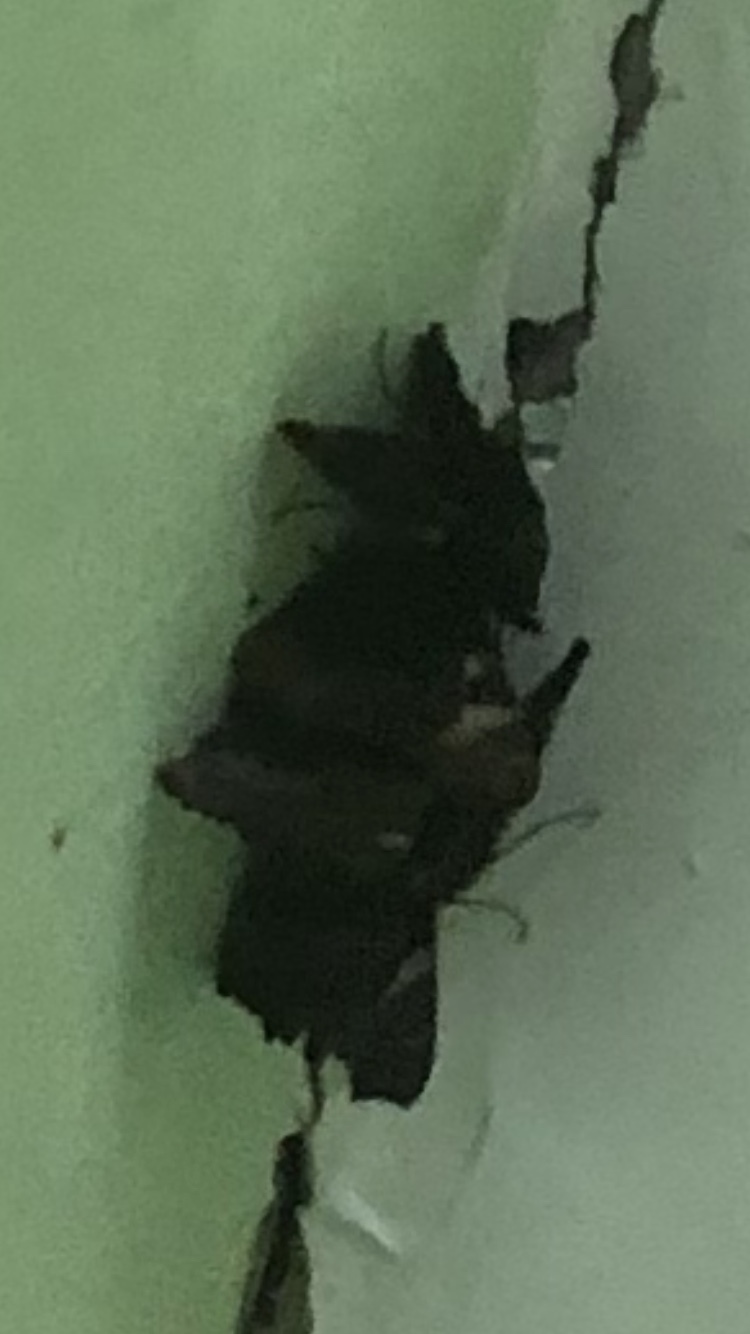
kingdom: Animalia
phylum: Arthropoda
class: Insecta
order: Lepidoptera
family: Nymphalidae
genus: Aglais
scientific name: Aglais urticae
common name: Small tortoiseshell
